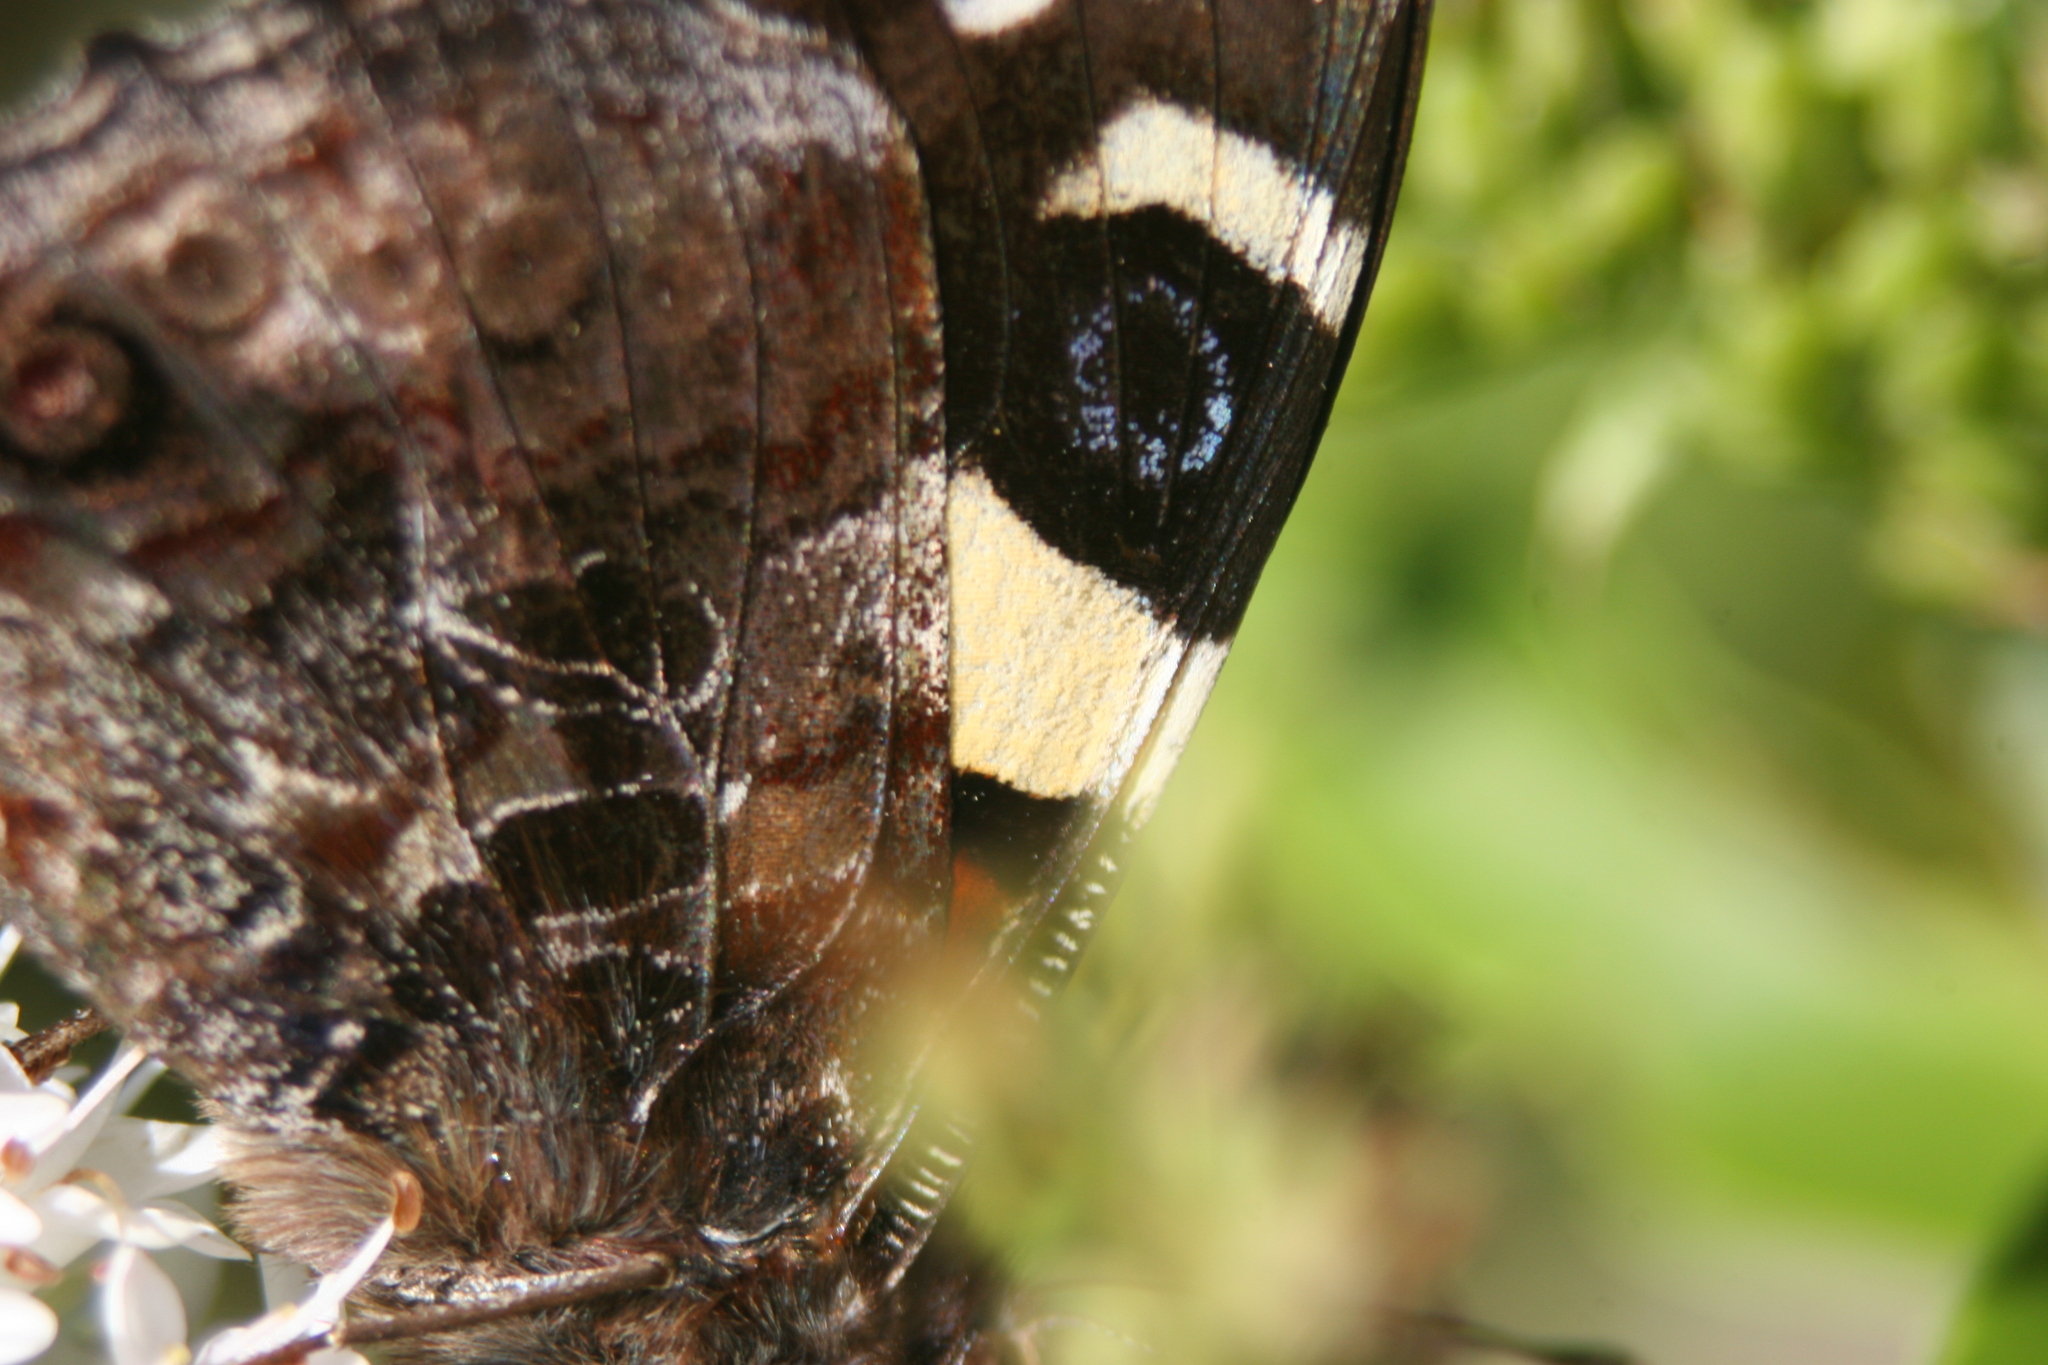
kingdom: Animalia
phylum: Arthropoda
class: Insecta
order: Lepidoptera
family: Nymphalidae
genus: Vanessa
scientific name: Vanessa itea
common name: Yellow admiral
